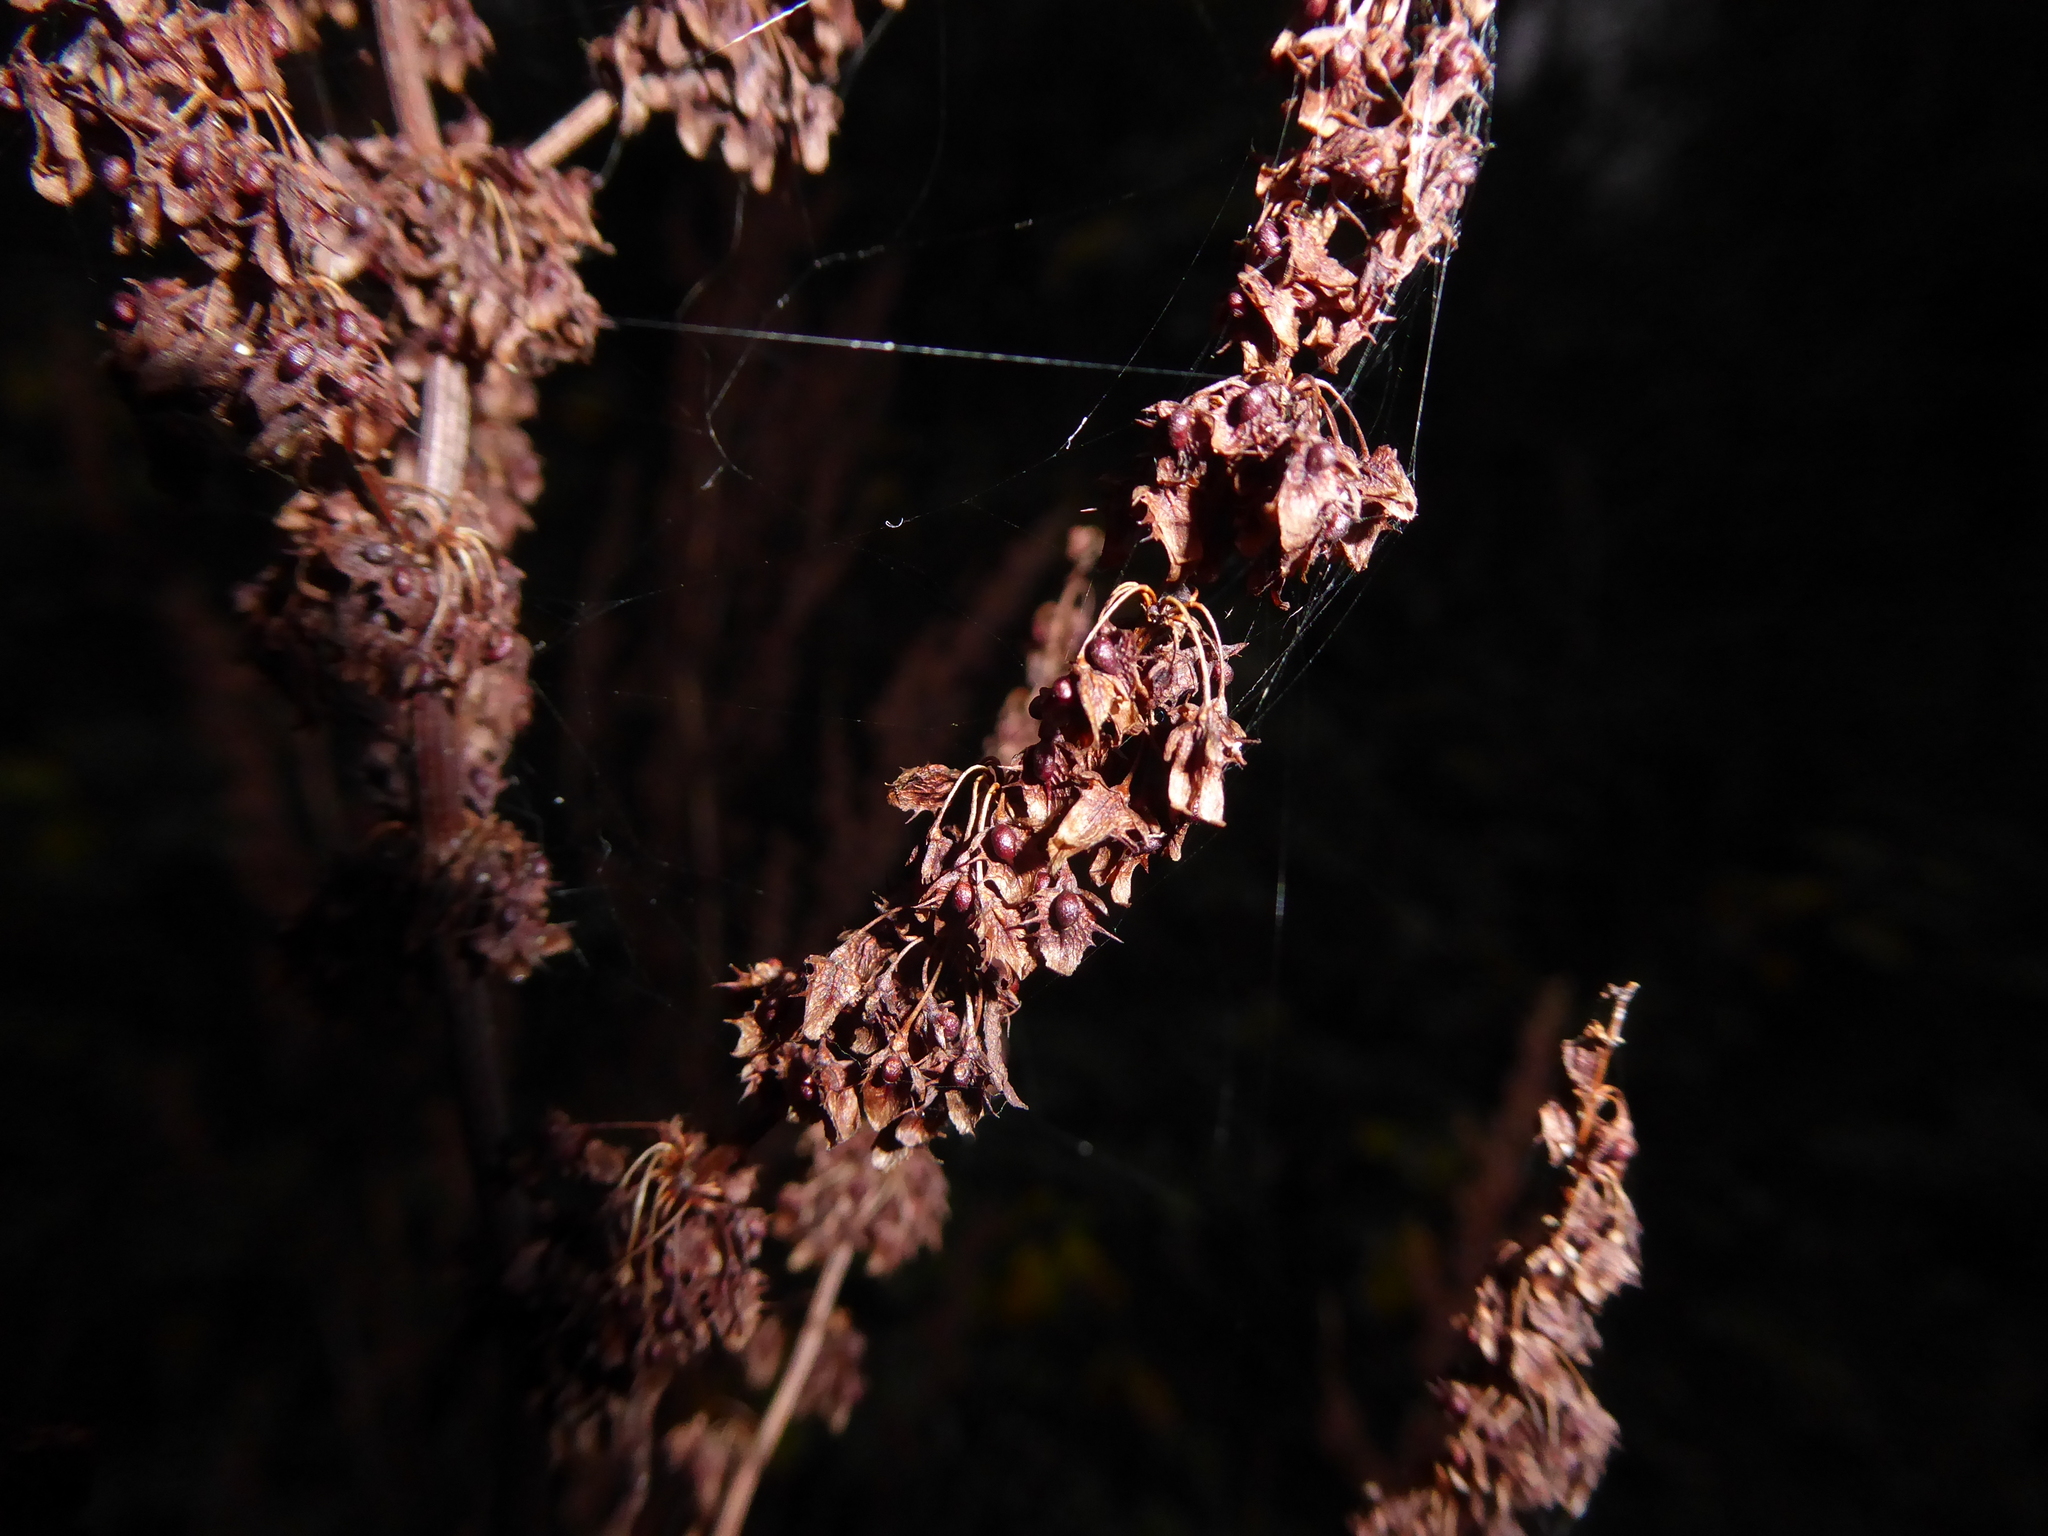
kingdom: Plantae
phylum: Tracheophyta
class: Magnoliopsida
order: Caryophyllales
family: Polygonaceae
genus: Rumex
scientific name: Rumex obtusifolius
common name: Bitter dock
